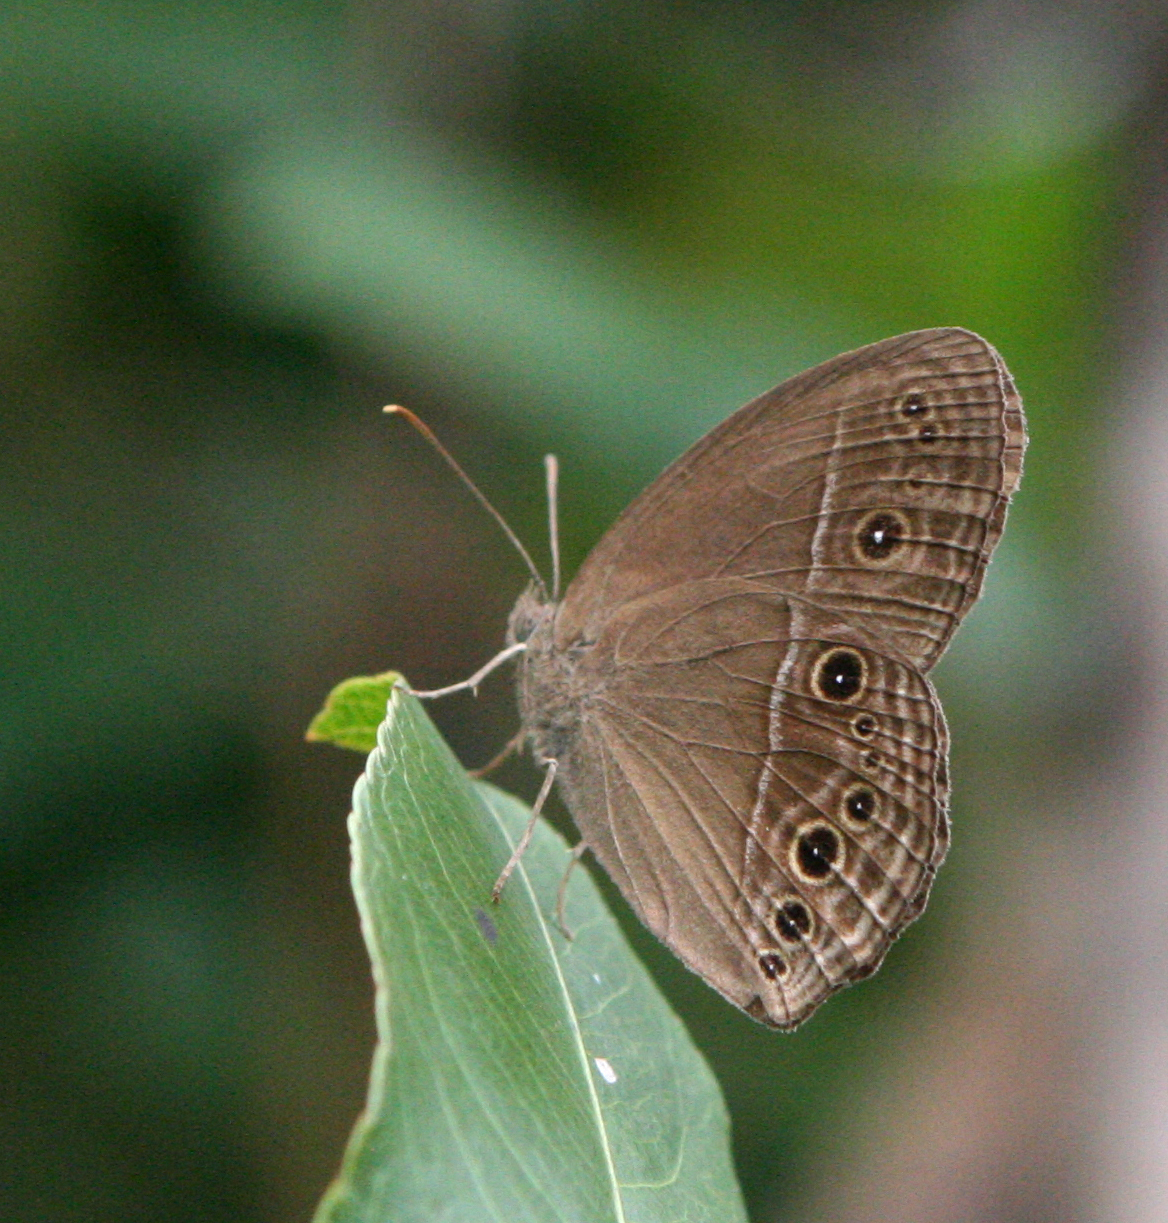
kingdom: Animalia
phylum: Arthropoda
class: Insecta
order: Lepidoptera
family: Nymphalidae
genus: Mycalesis
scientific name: Mycalesis perseus
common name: Dingy bushbrown
